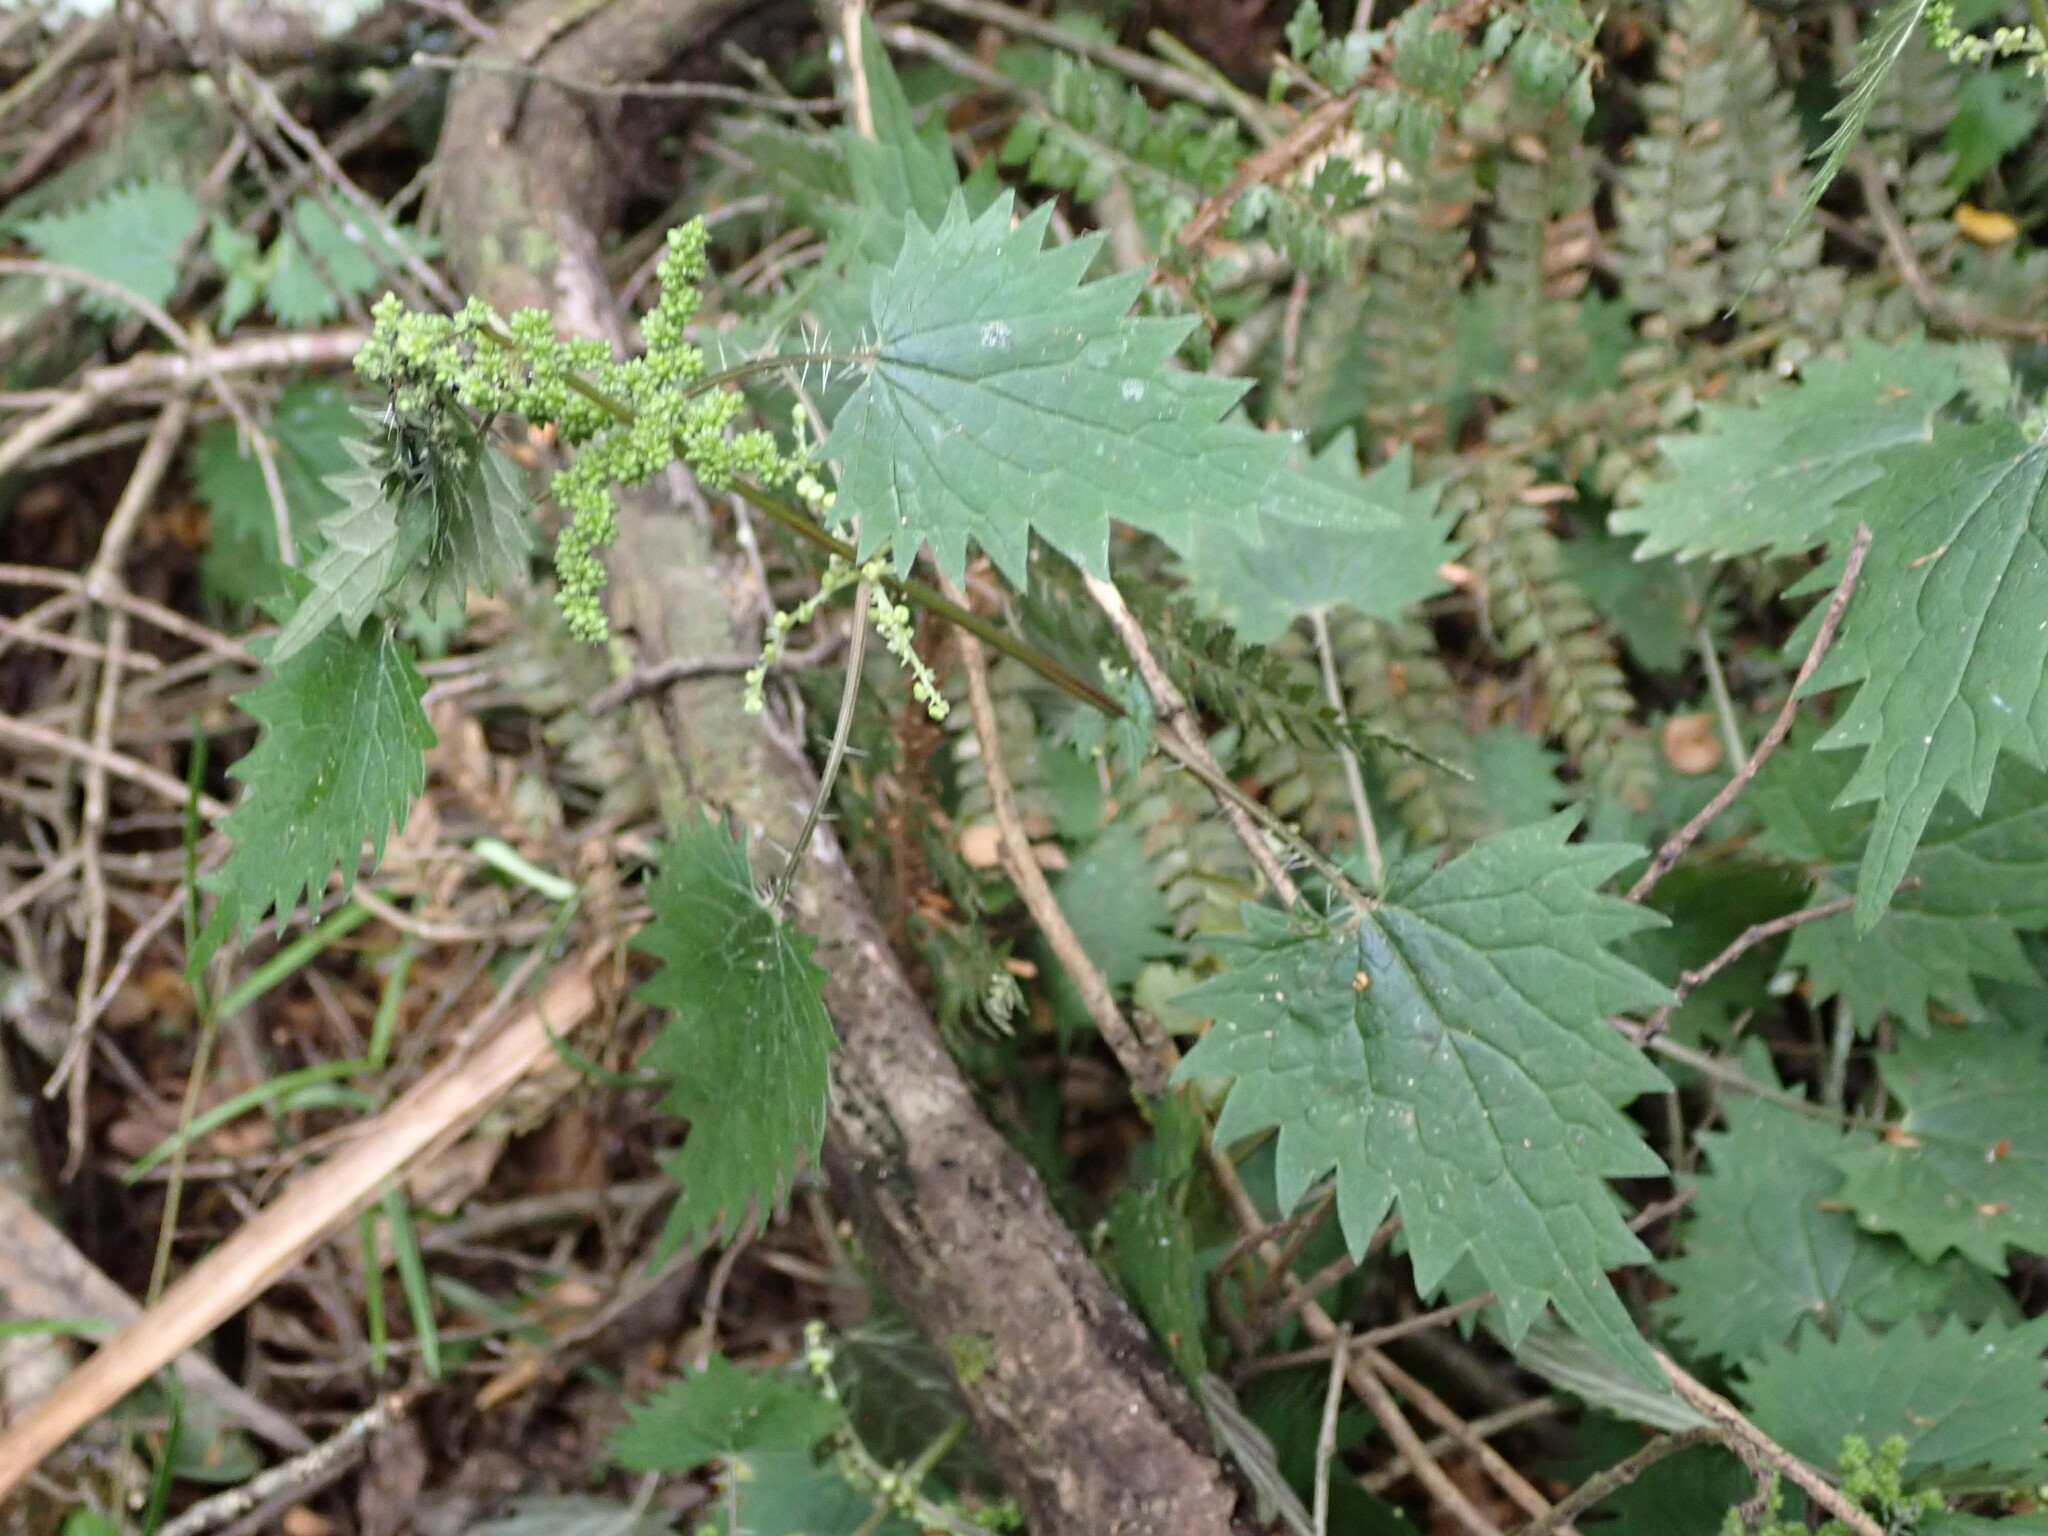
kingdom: Plantae
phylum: Tracheophyta
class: Magnoliopsida
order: Rosales
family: Urticaceae
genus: Urtica
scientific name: Urtica sykesii
